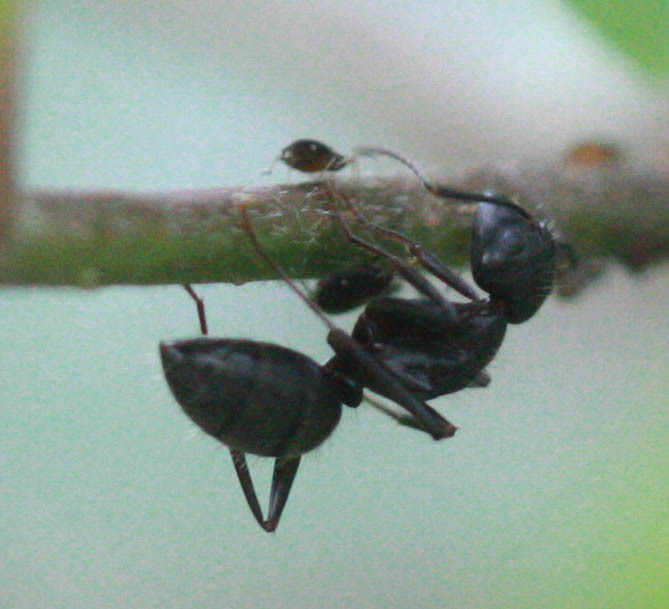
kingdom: Animalia
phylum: Arthropoda
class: Insecta
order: Hymenoptera
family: Formicidae
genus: Camponotus
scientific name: Camponotus pennsylvanicus
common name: Black carpenter ant
